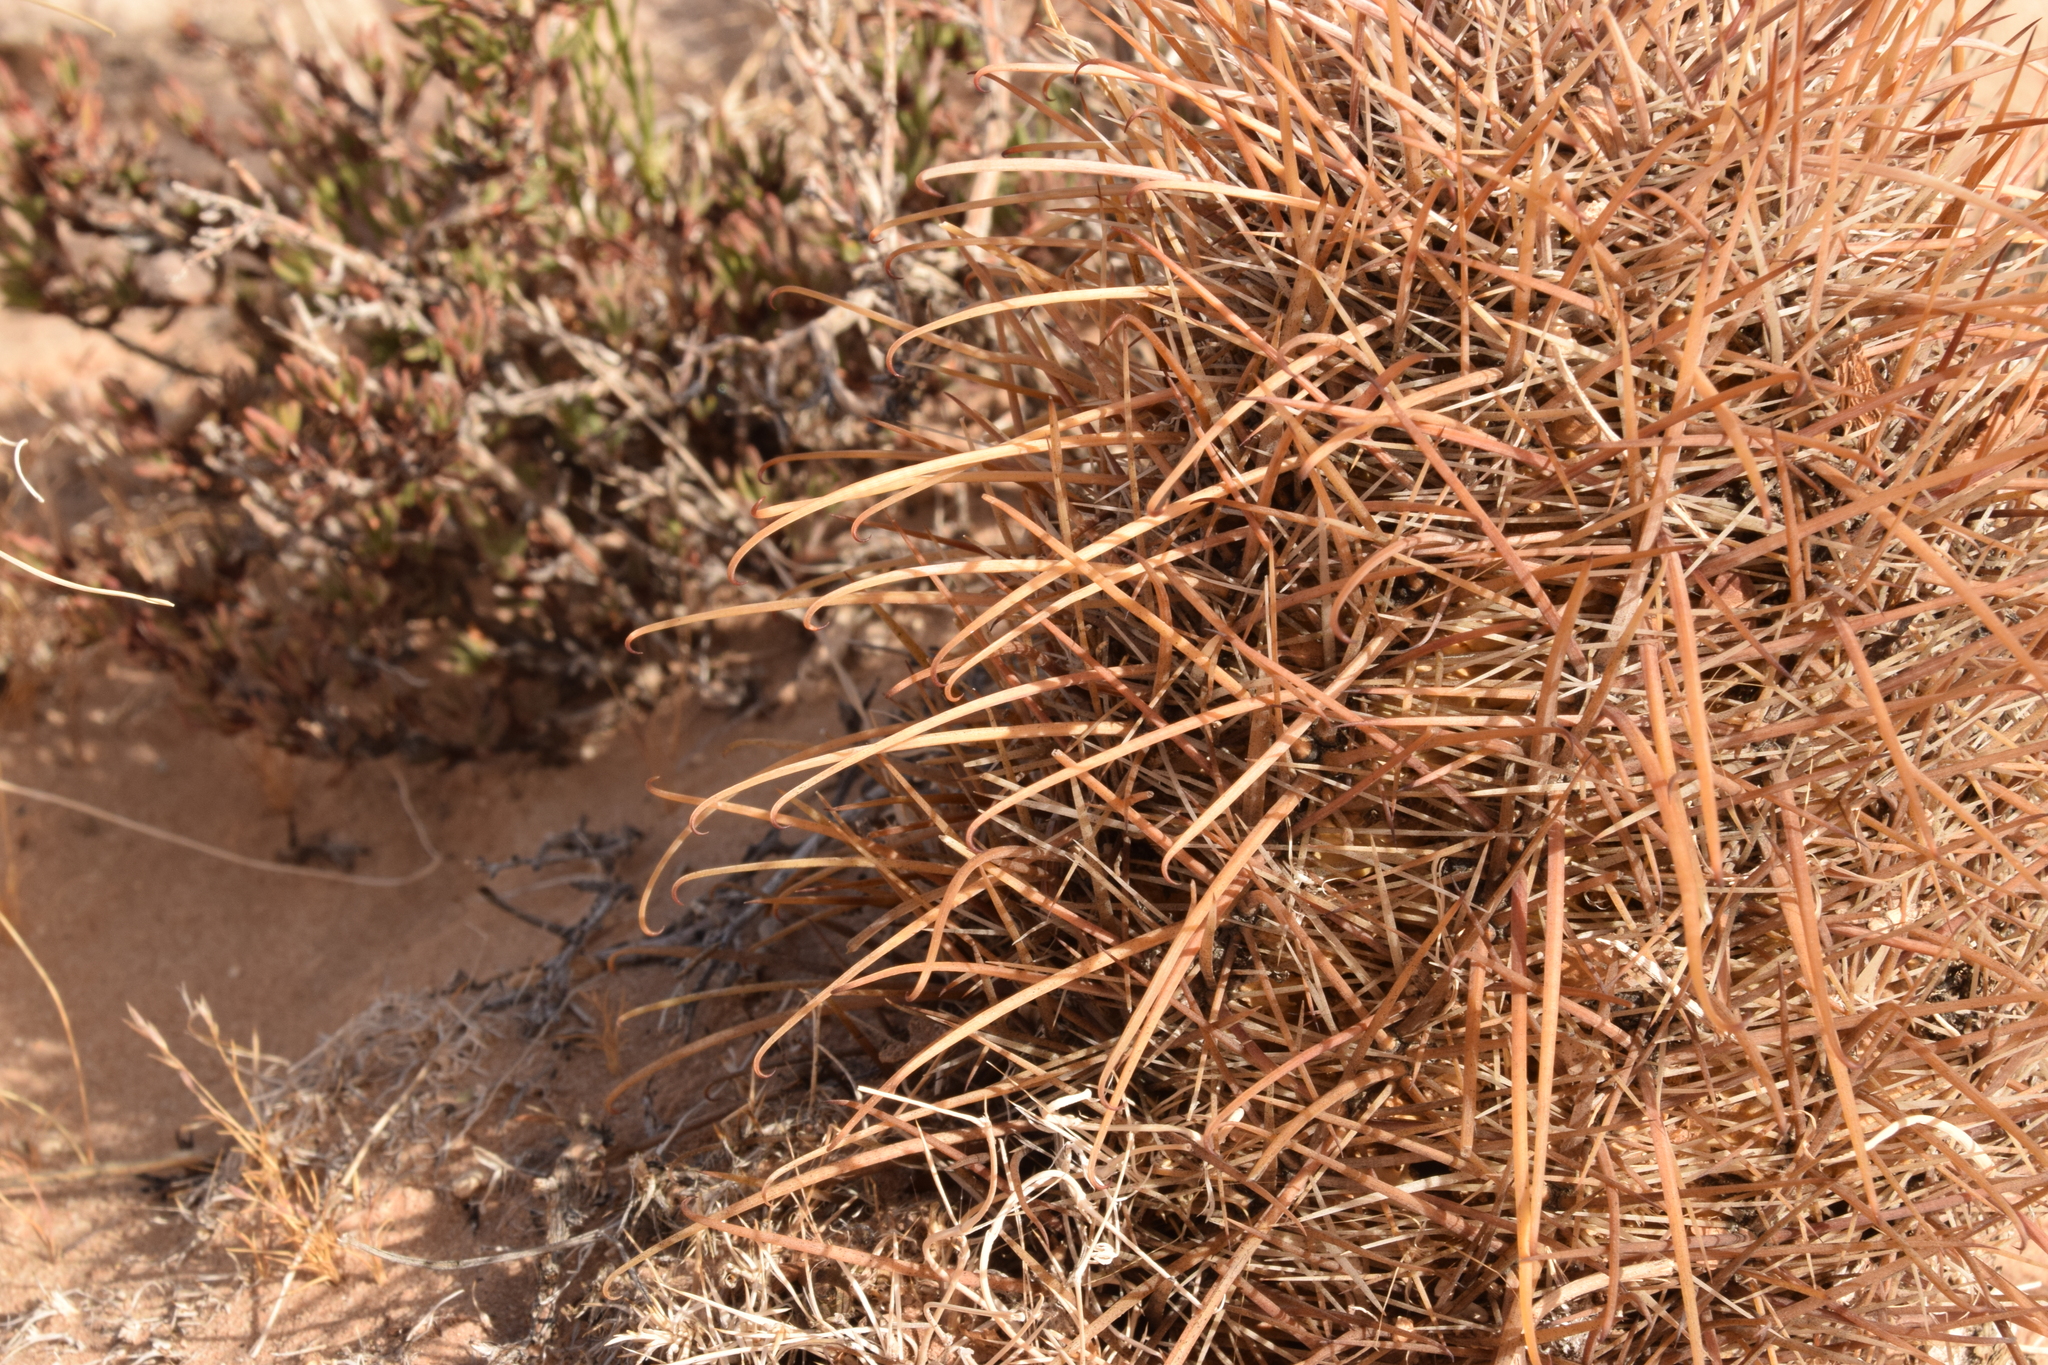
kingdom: Plantae
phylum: Tracheophyta
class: Magnoliopsida
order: Caryophyllales
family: Cactaceae
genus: Sclerocactus
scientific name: Sclerocactus parviflorus
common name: Small-flower fishhook cactus
